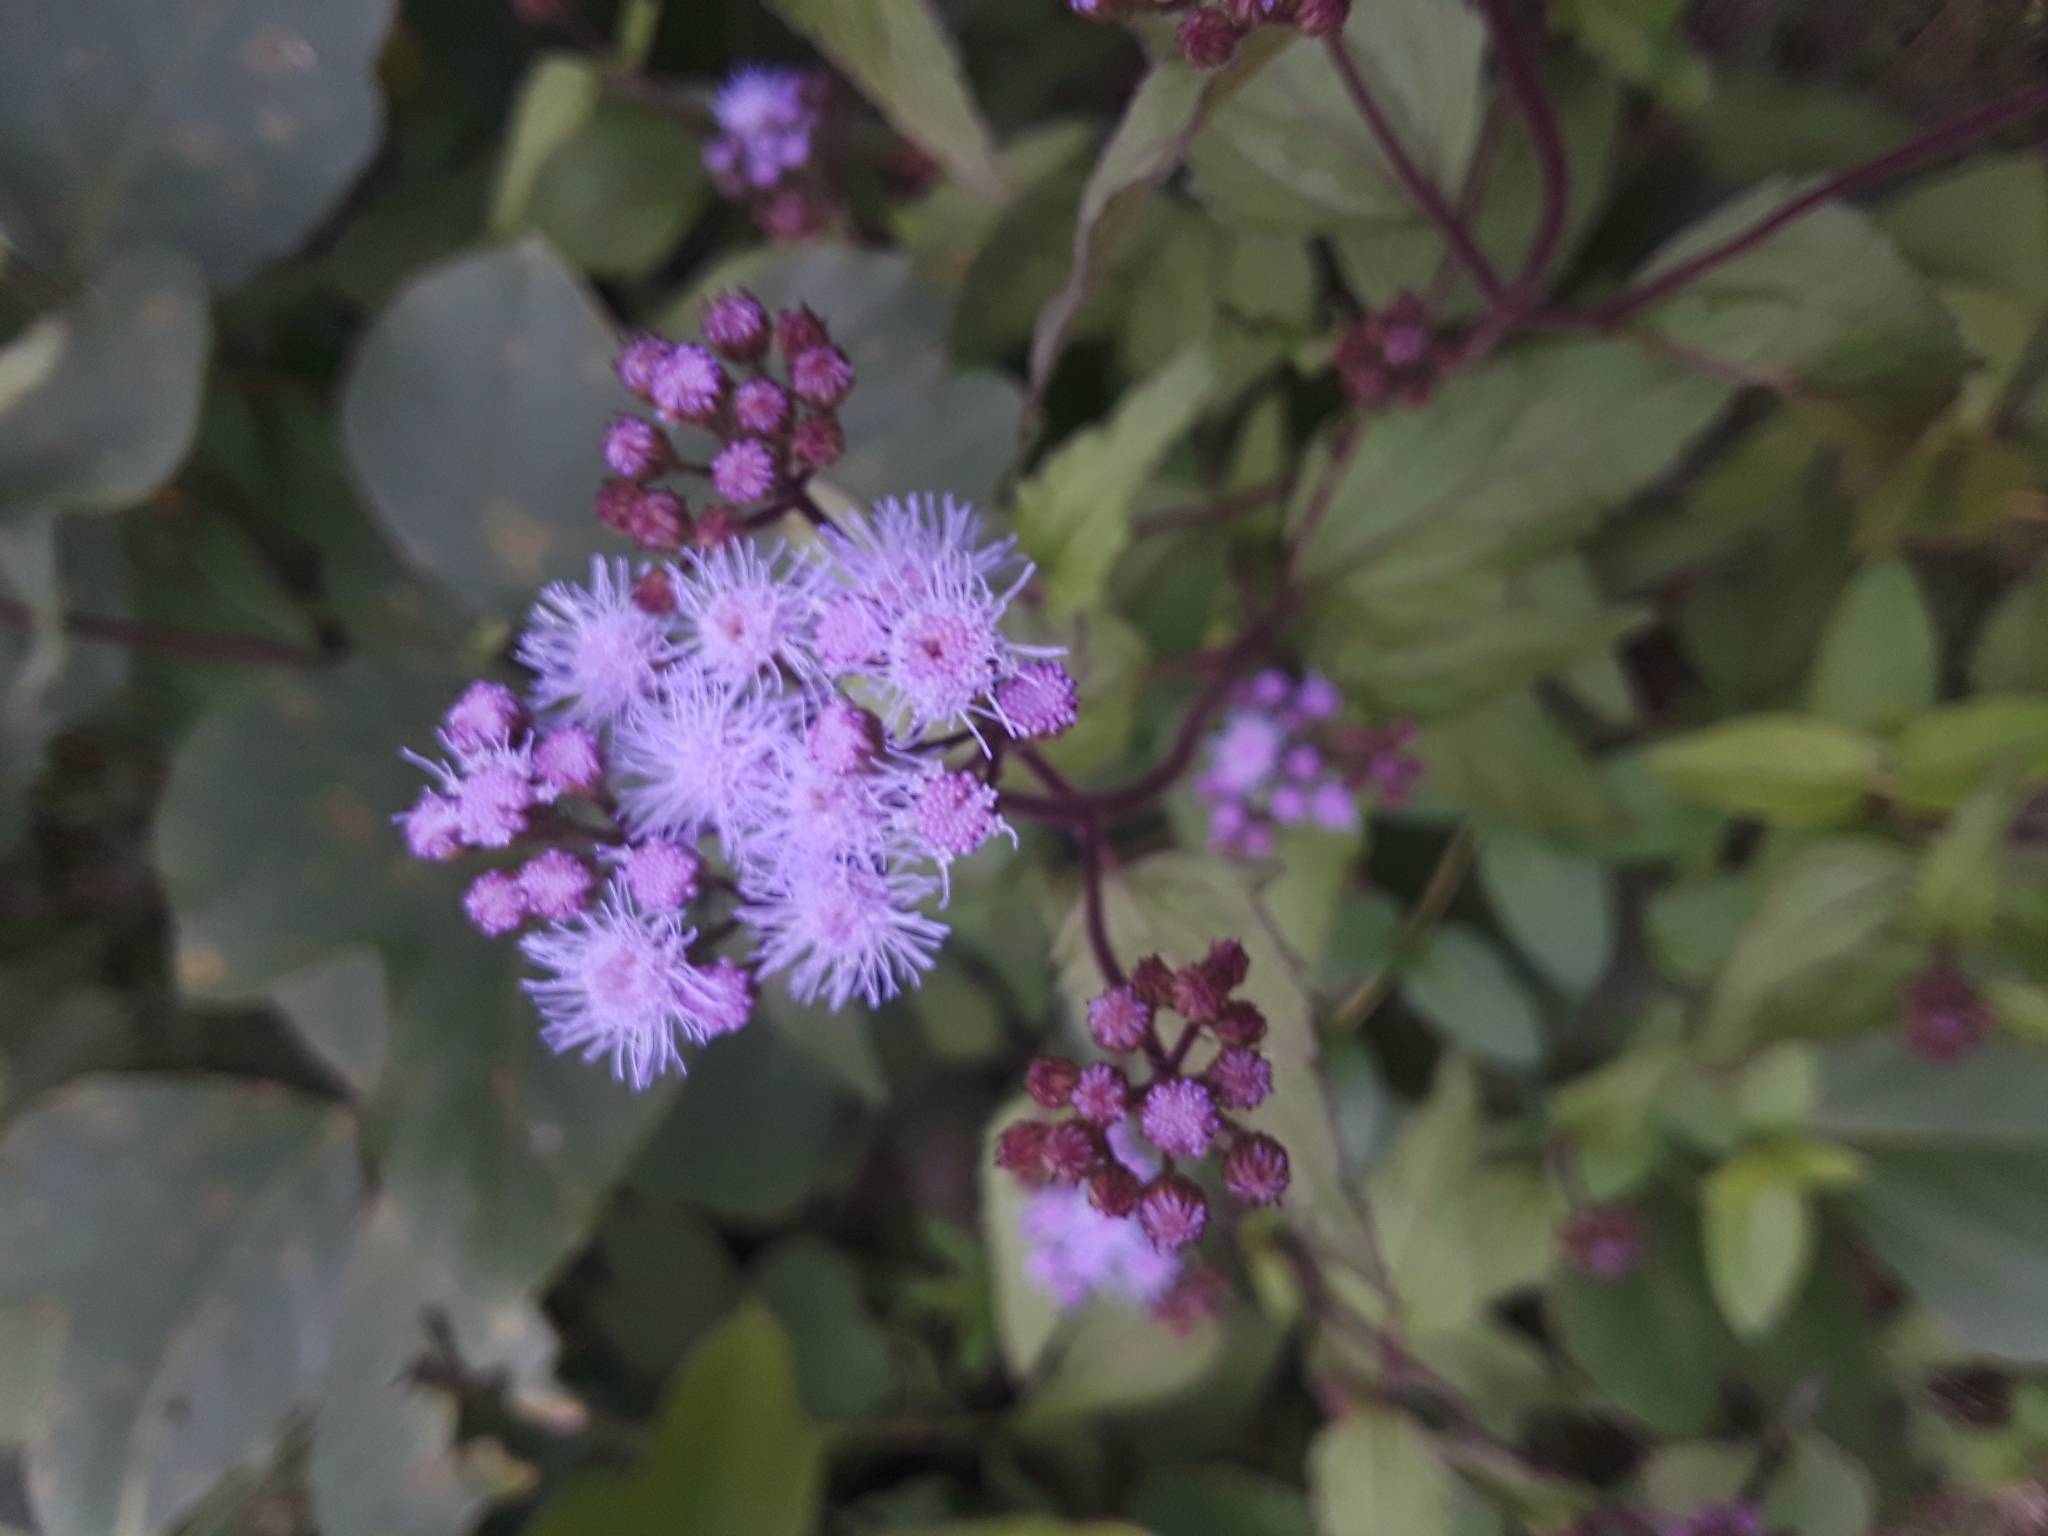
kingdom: Plantae
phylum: Tracheophyta
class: Magnoliopsida
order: Asterales
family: Asteraceae
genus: Conoclinium
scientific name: Conoclinium coelestinum
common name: Blue mistflower
